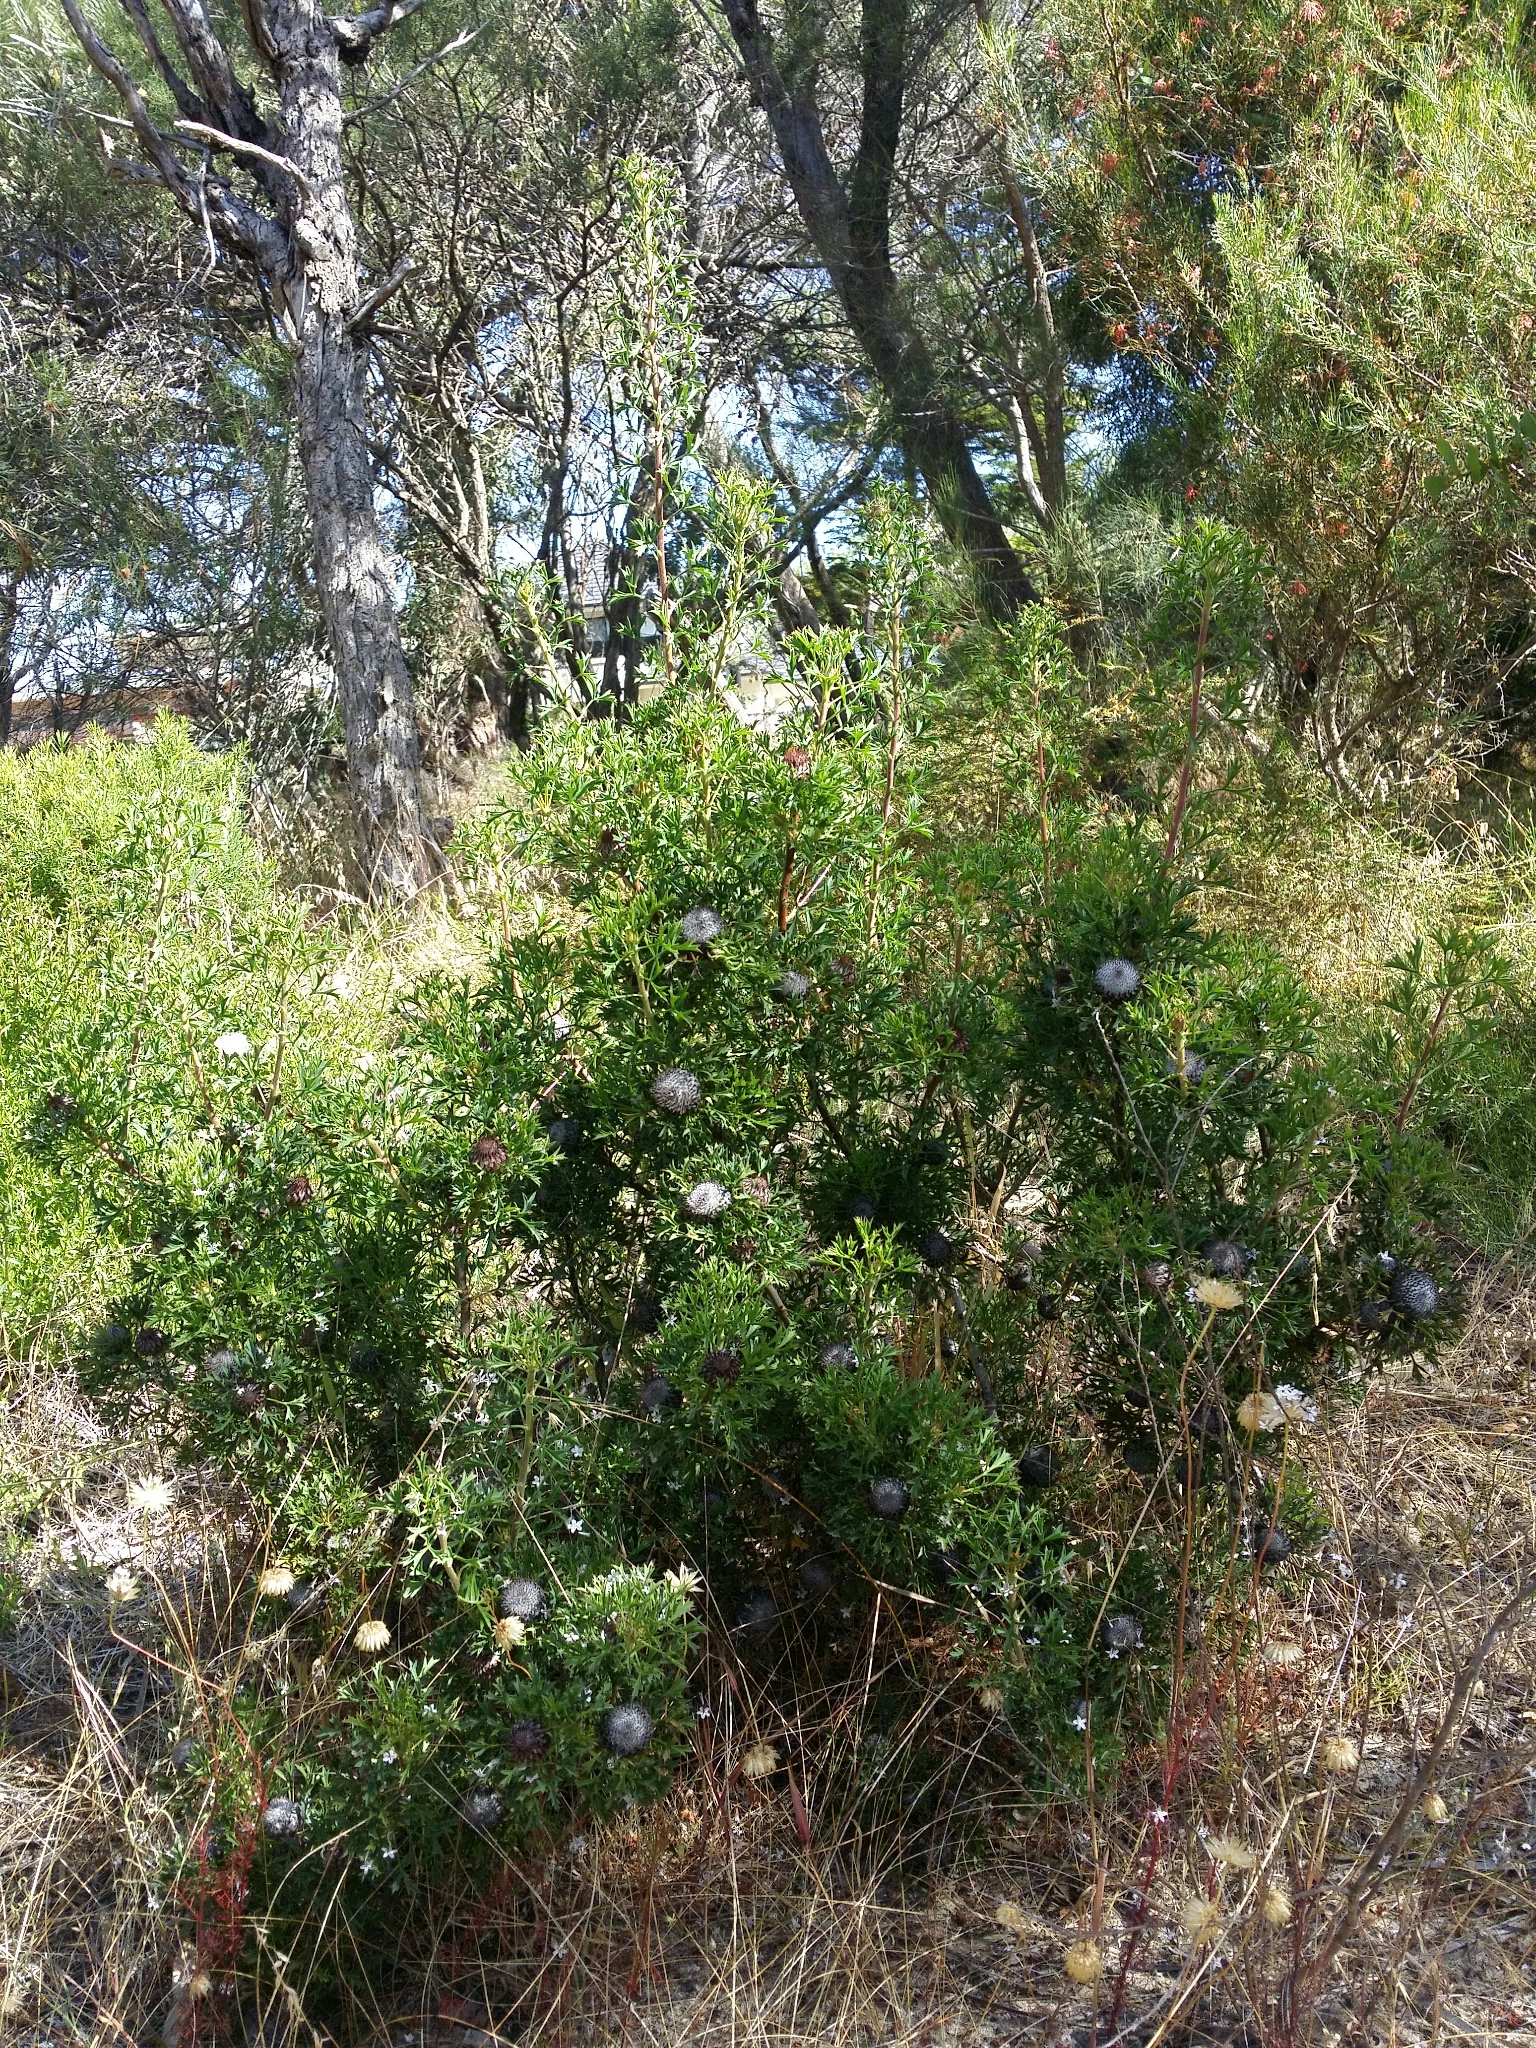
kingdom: Plantae
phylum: Tracheophyta
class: Magnoliopsida
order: Proteales
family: Proteaceae
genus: Isopogon
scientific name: Isopogon dubius
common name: Pincushion-coneflower
